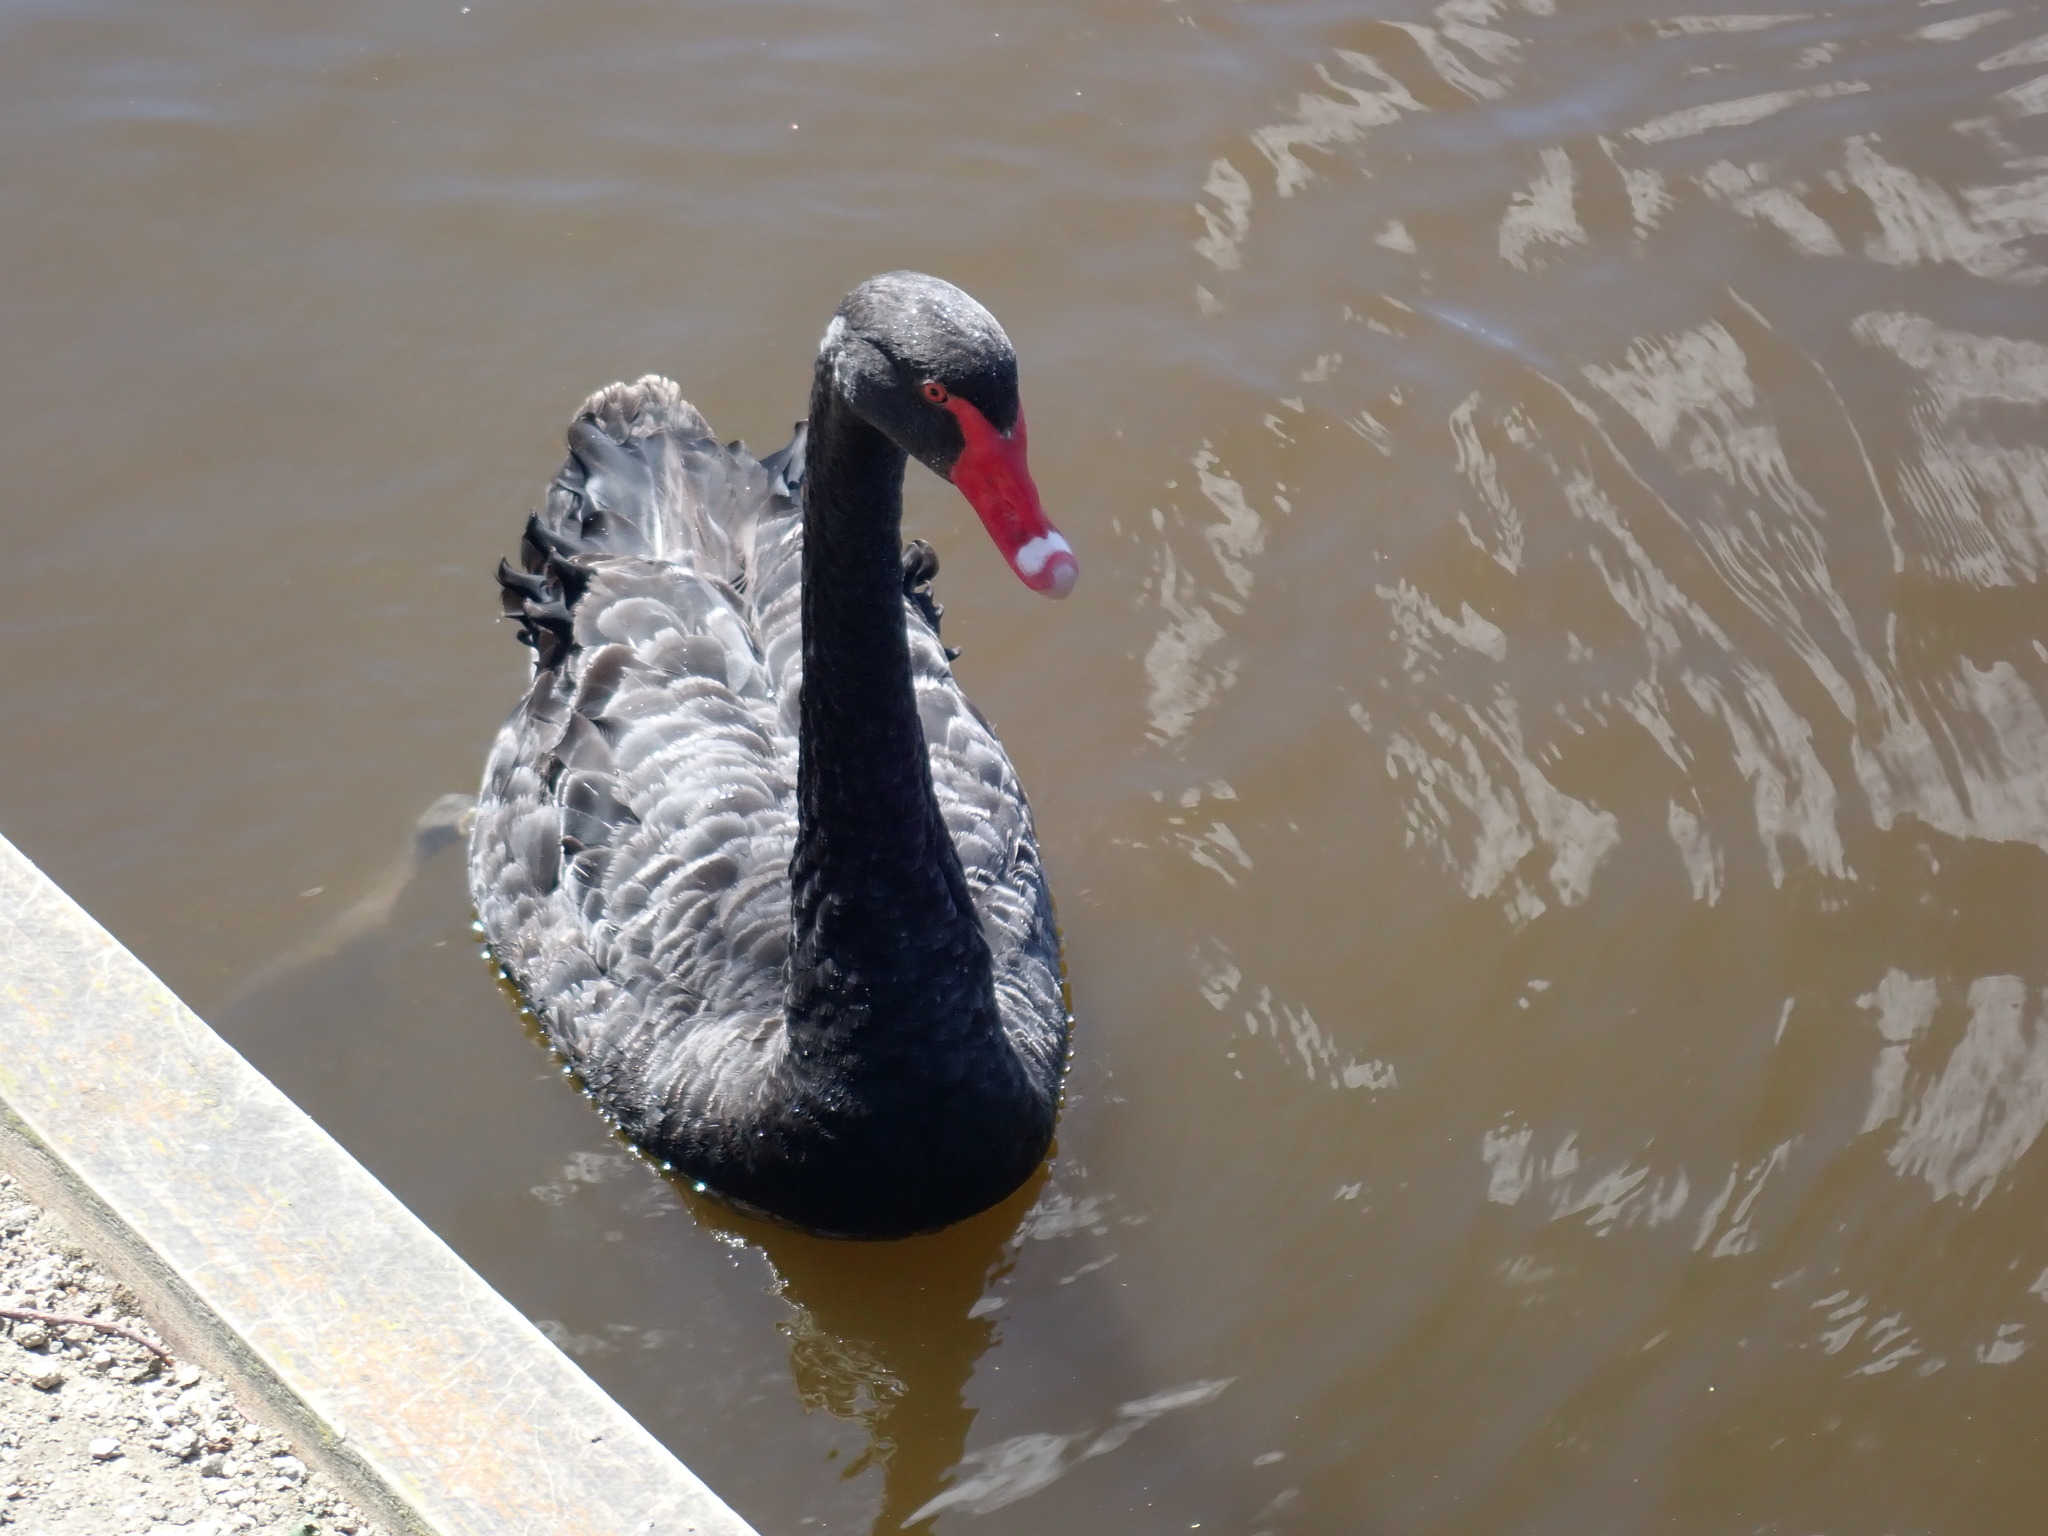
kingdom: Animalia
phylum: Chordata
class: Aves
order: Anseriformes
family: Anatidae
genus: Cygnus
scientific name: Cygnus atratus
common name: Black swan
